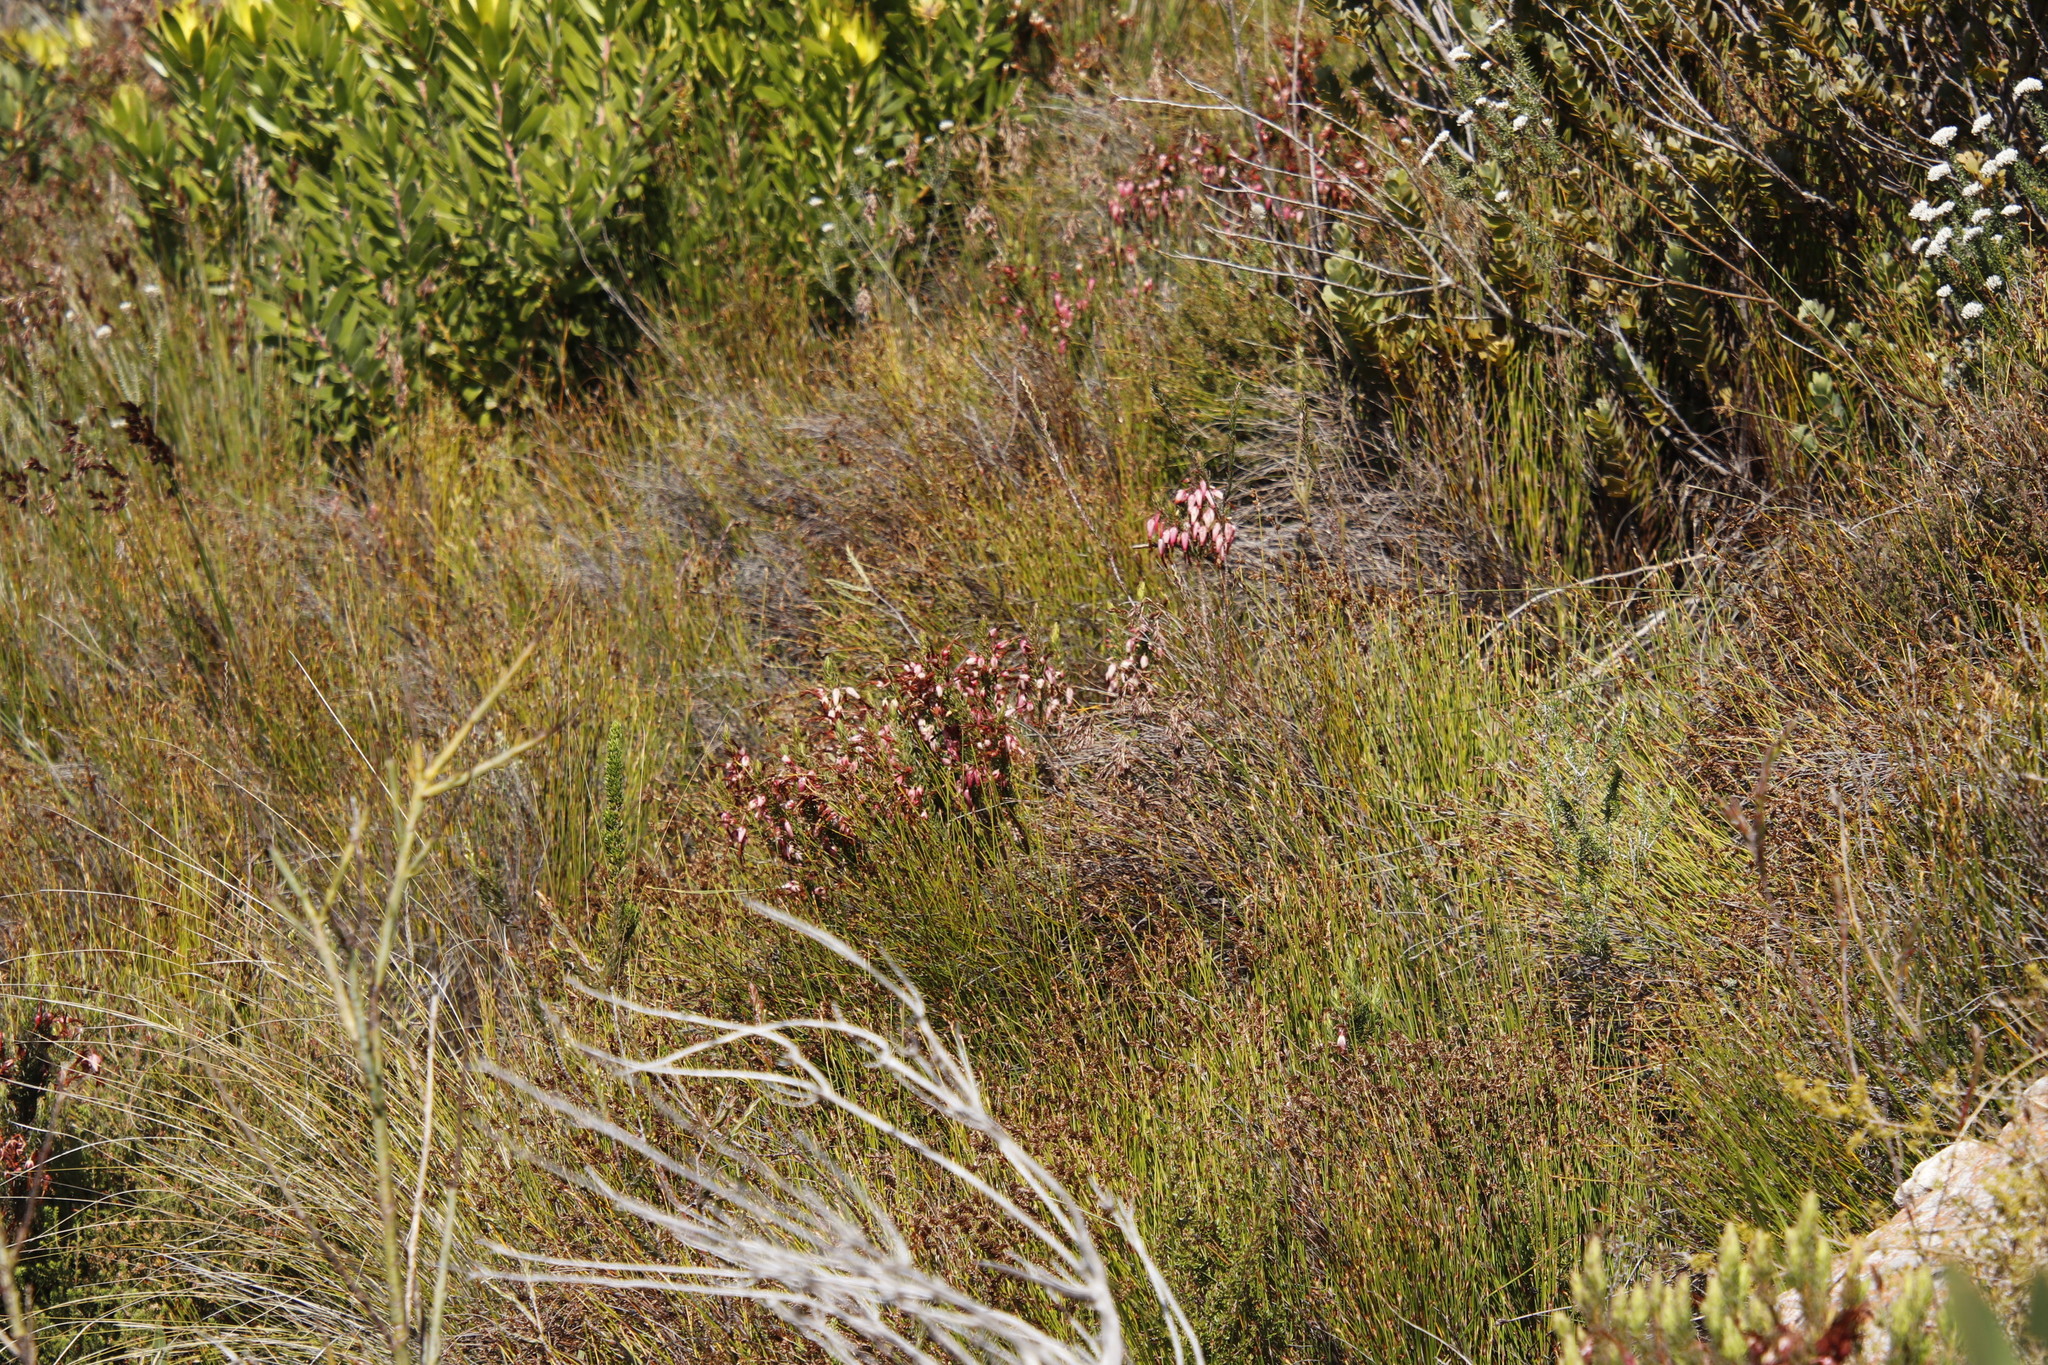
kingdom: Plantae
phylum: Tracheophyta
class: Magnoliopsida
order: Ericales
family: Ericaceae
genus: Erica
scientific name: Erica plukenetii
